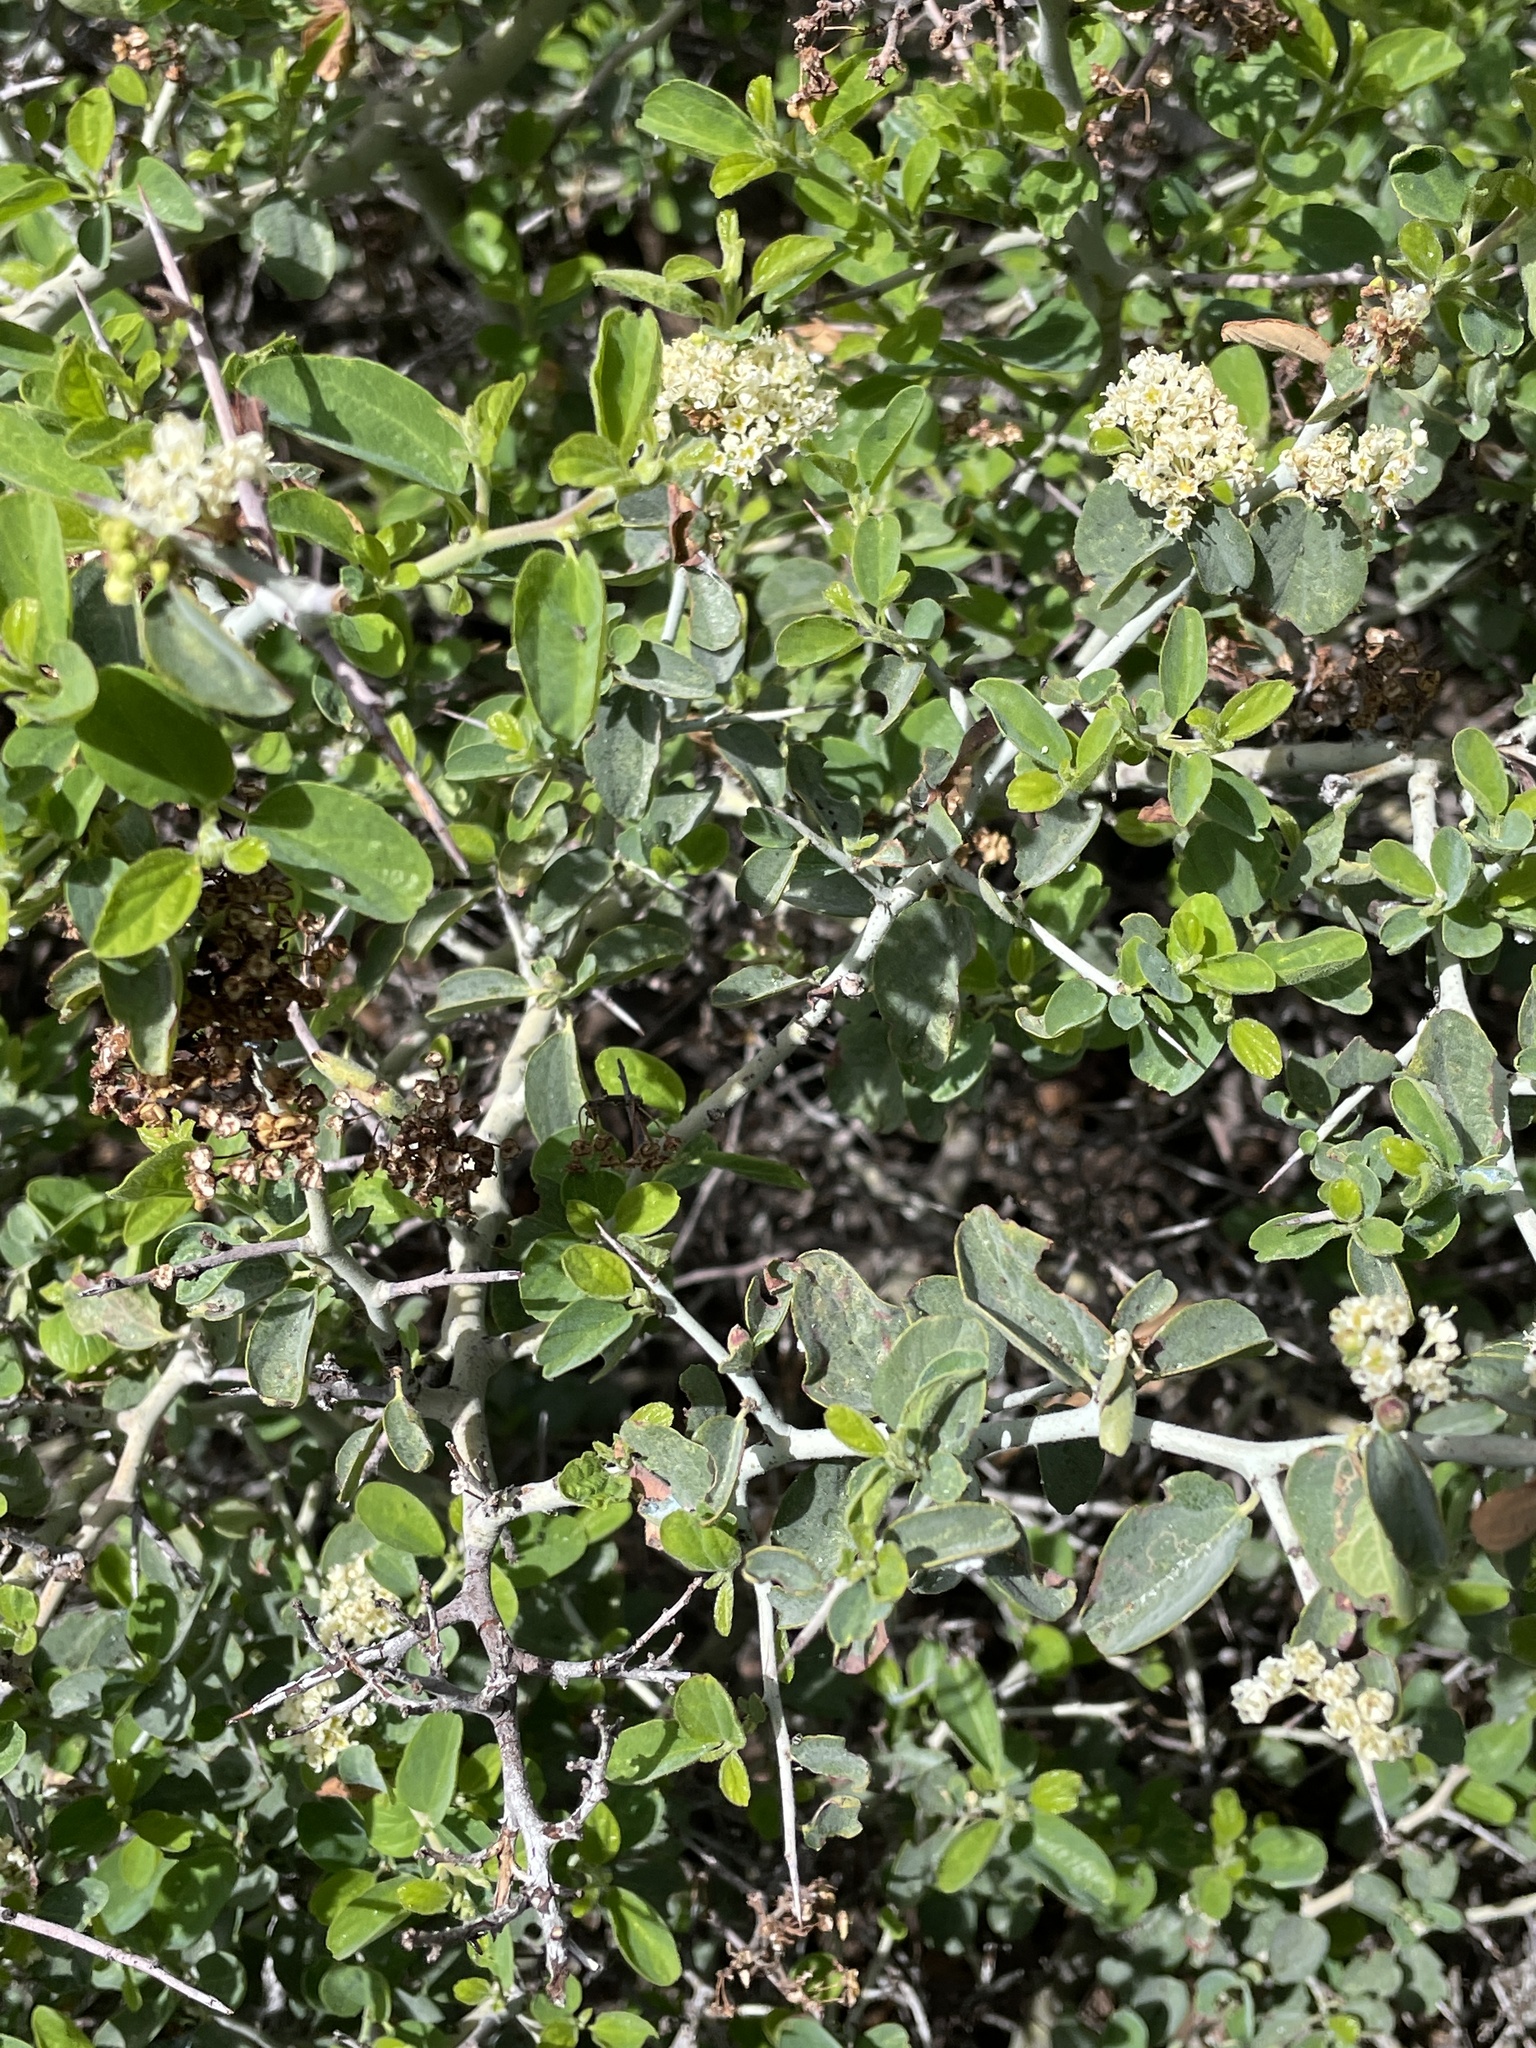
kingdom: Plantae
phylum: Tracheophyta
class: Magnoliopsida
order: Rosales
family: Rhamnaceae
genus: Ceanothus
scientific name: Ceanothus cordulatus
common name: Mountain whitethorn
